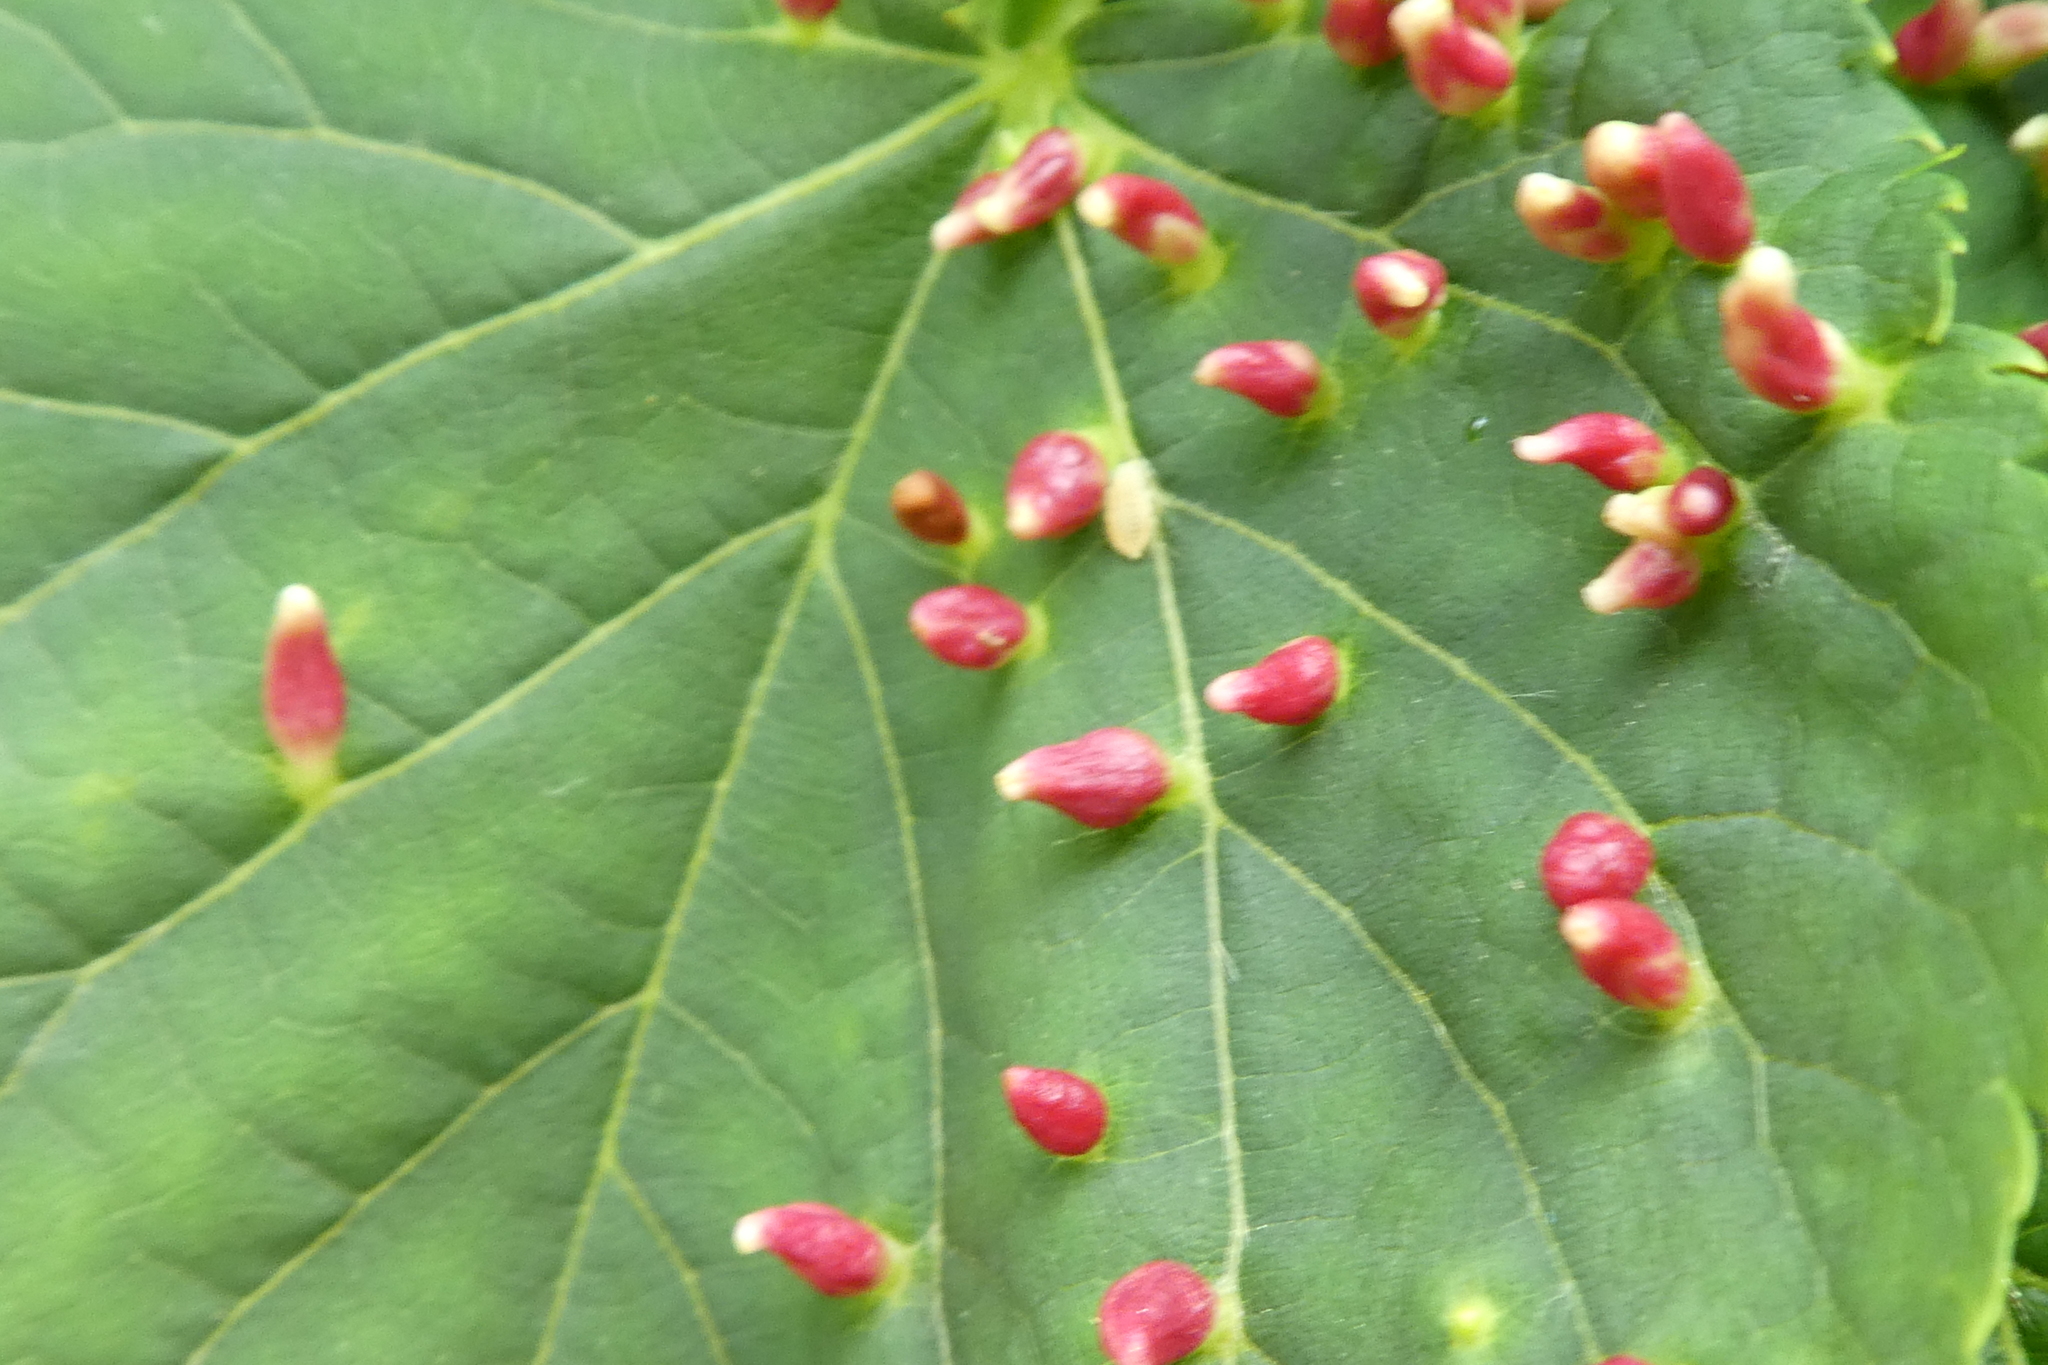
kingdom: Animalia
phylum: Arthropoda
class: Arachnida
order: Trombidiformes
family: Eriophyidae
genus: Eriophyes
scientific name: Eriophyes tiliae
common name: Red nail gall mite
